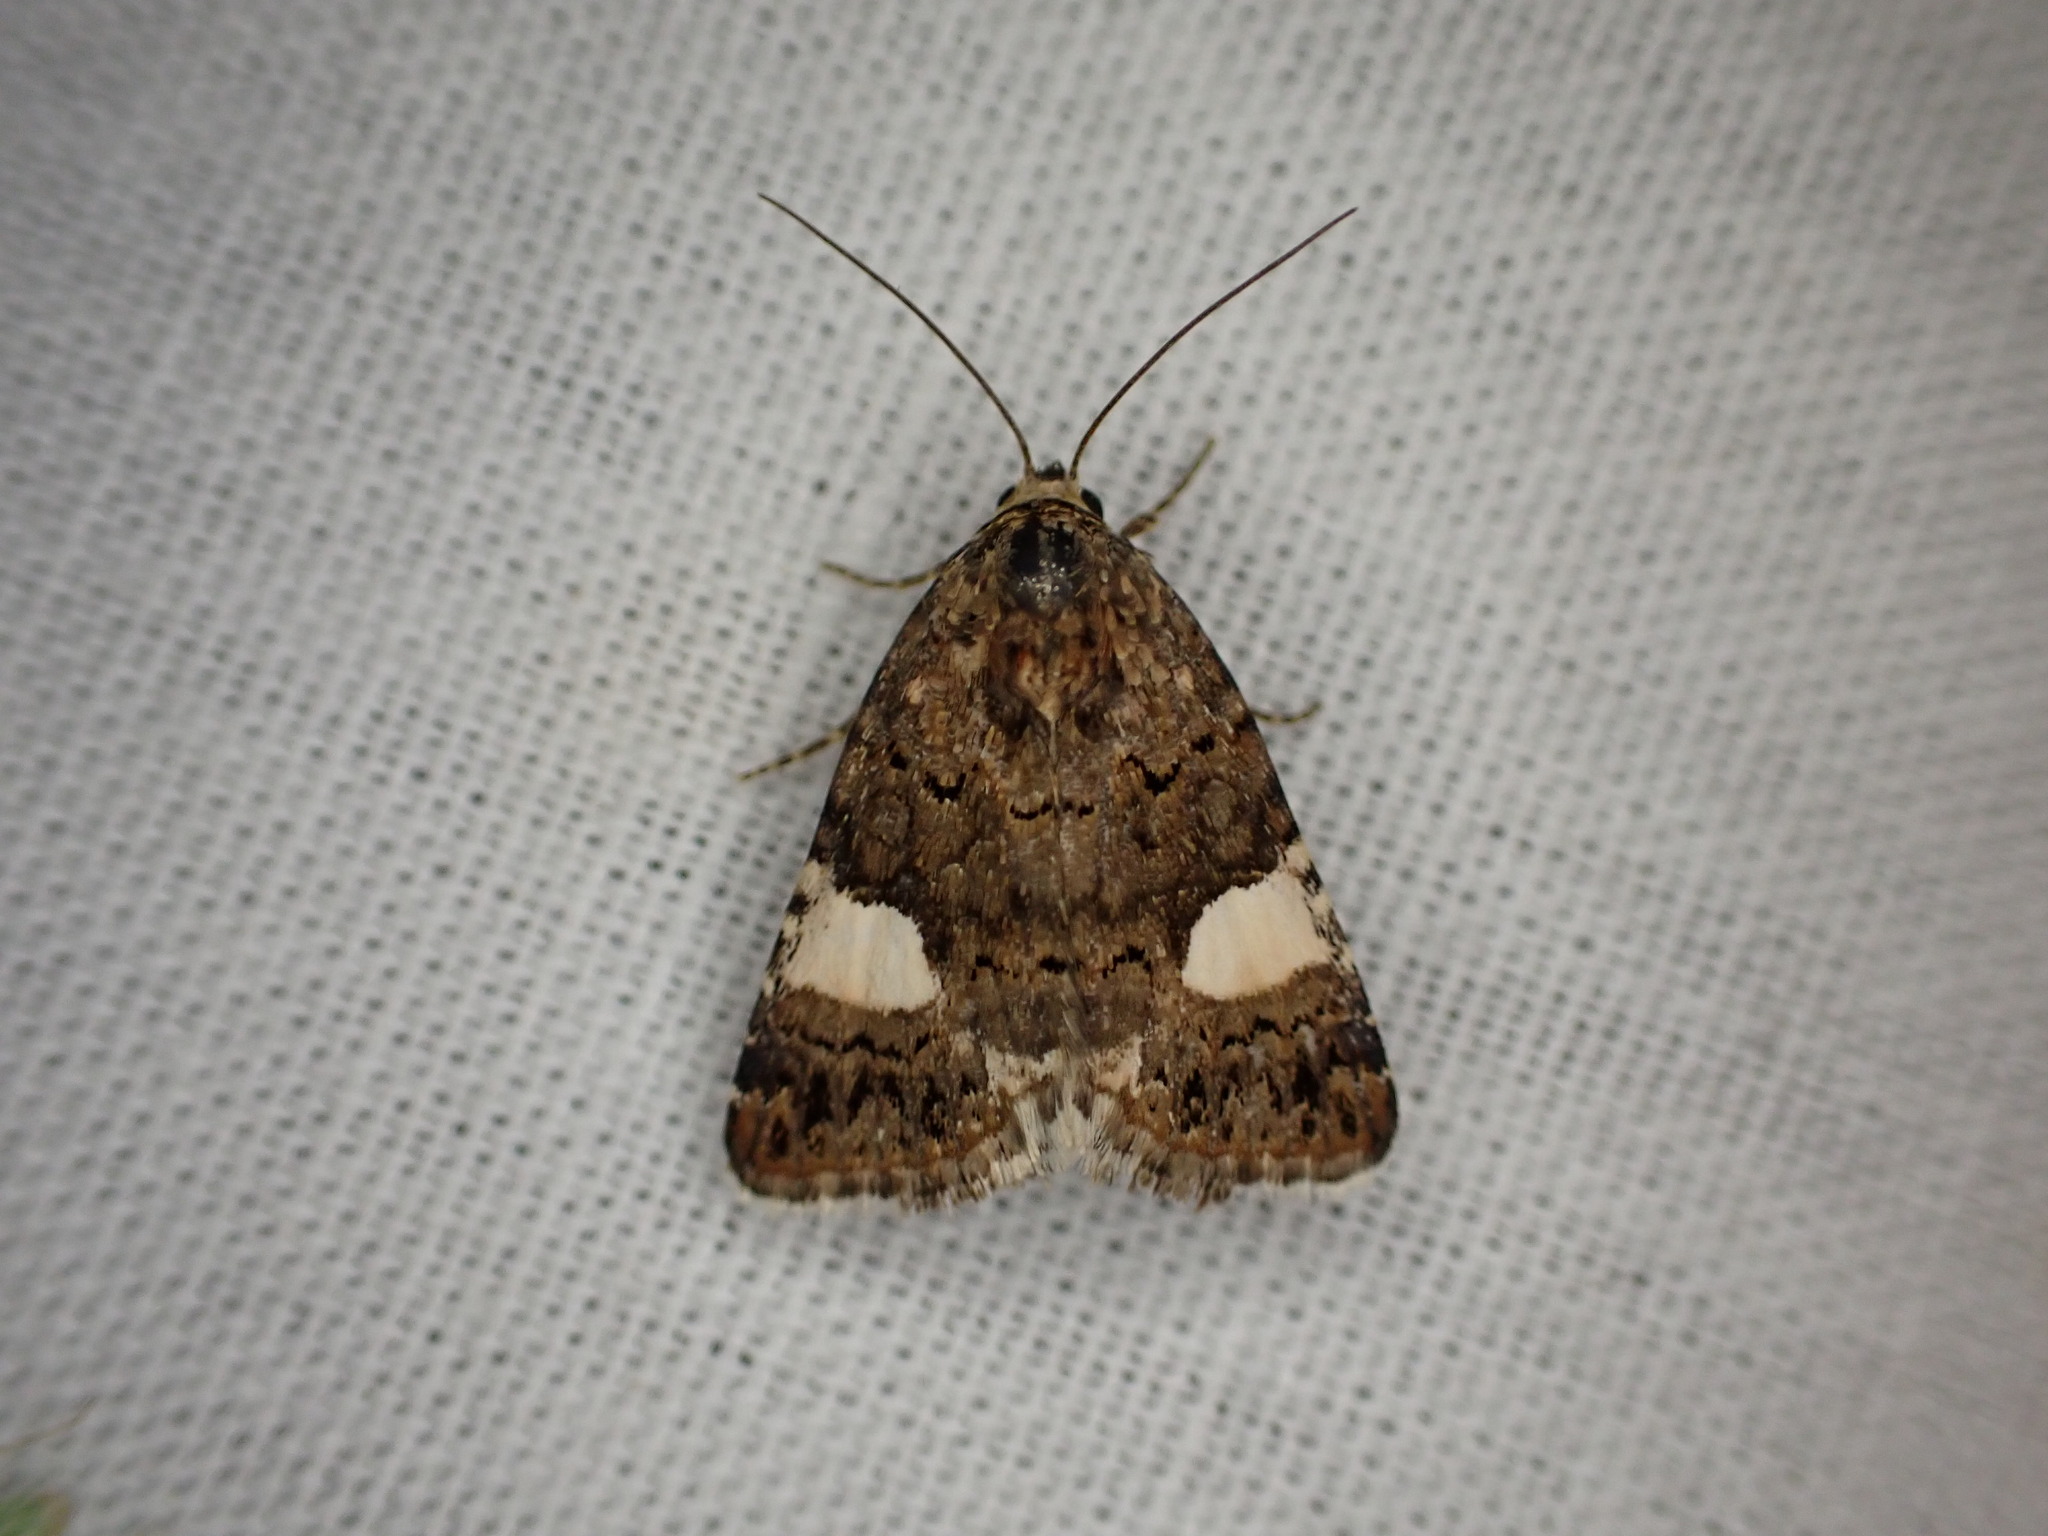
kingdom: Animalia
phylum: Arthropoda
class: Insecta
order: Lepidoptera
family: Erebidae
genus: Tyta
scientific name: Tyta luctuosa
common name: Four-spotted
